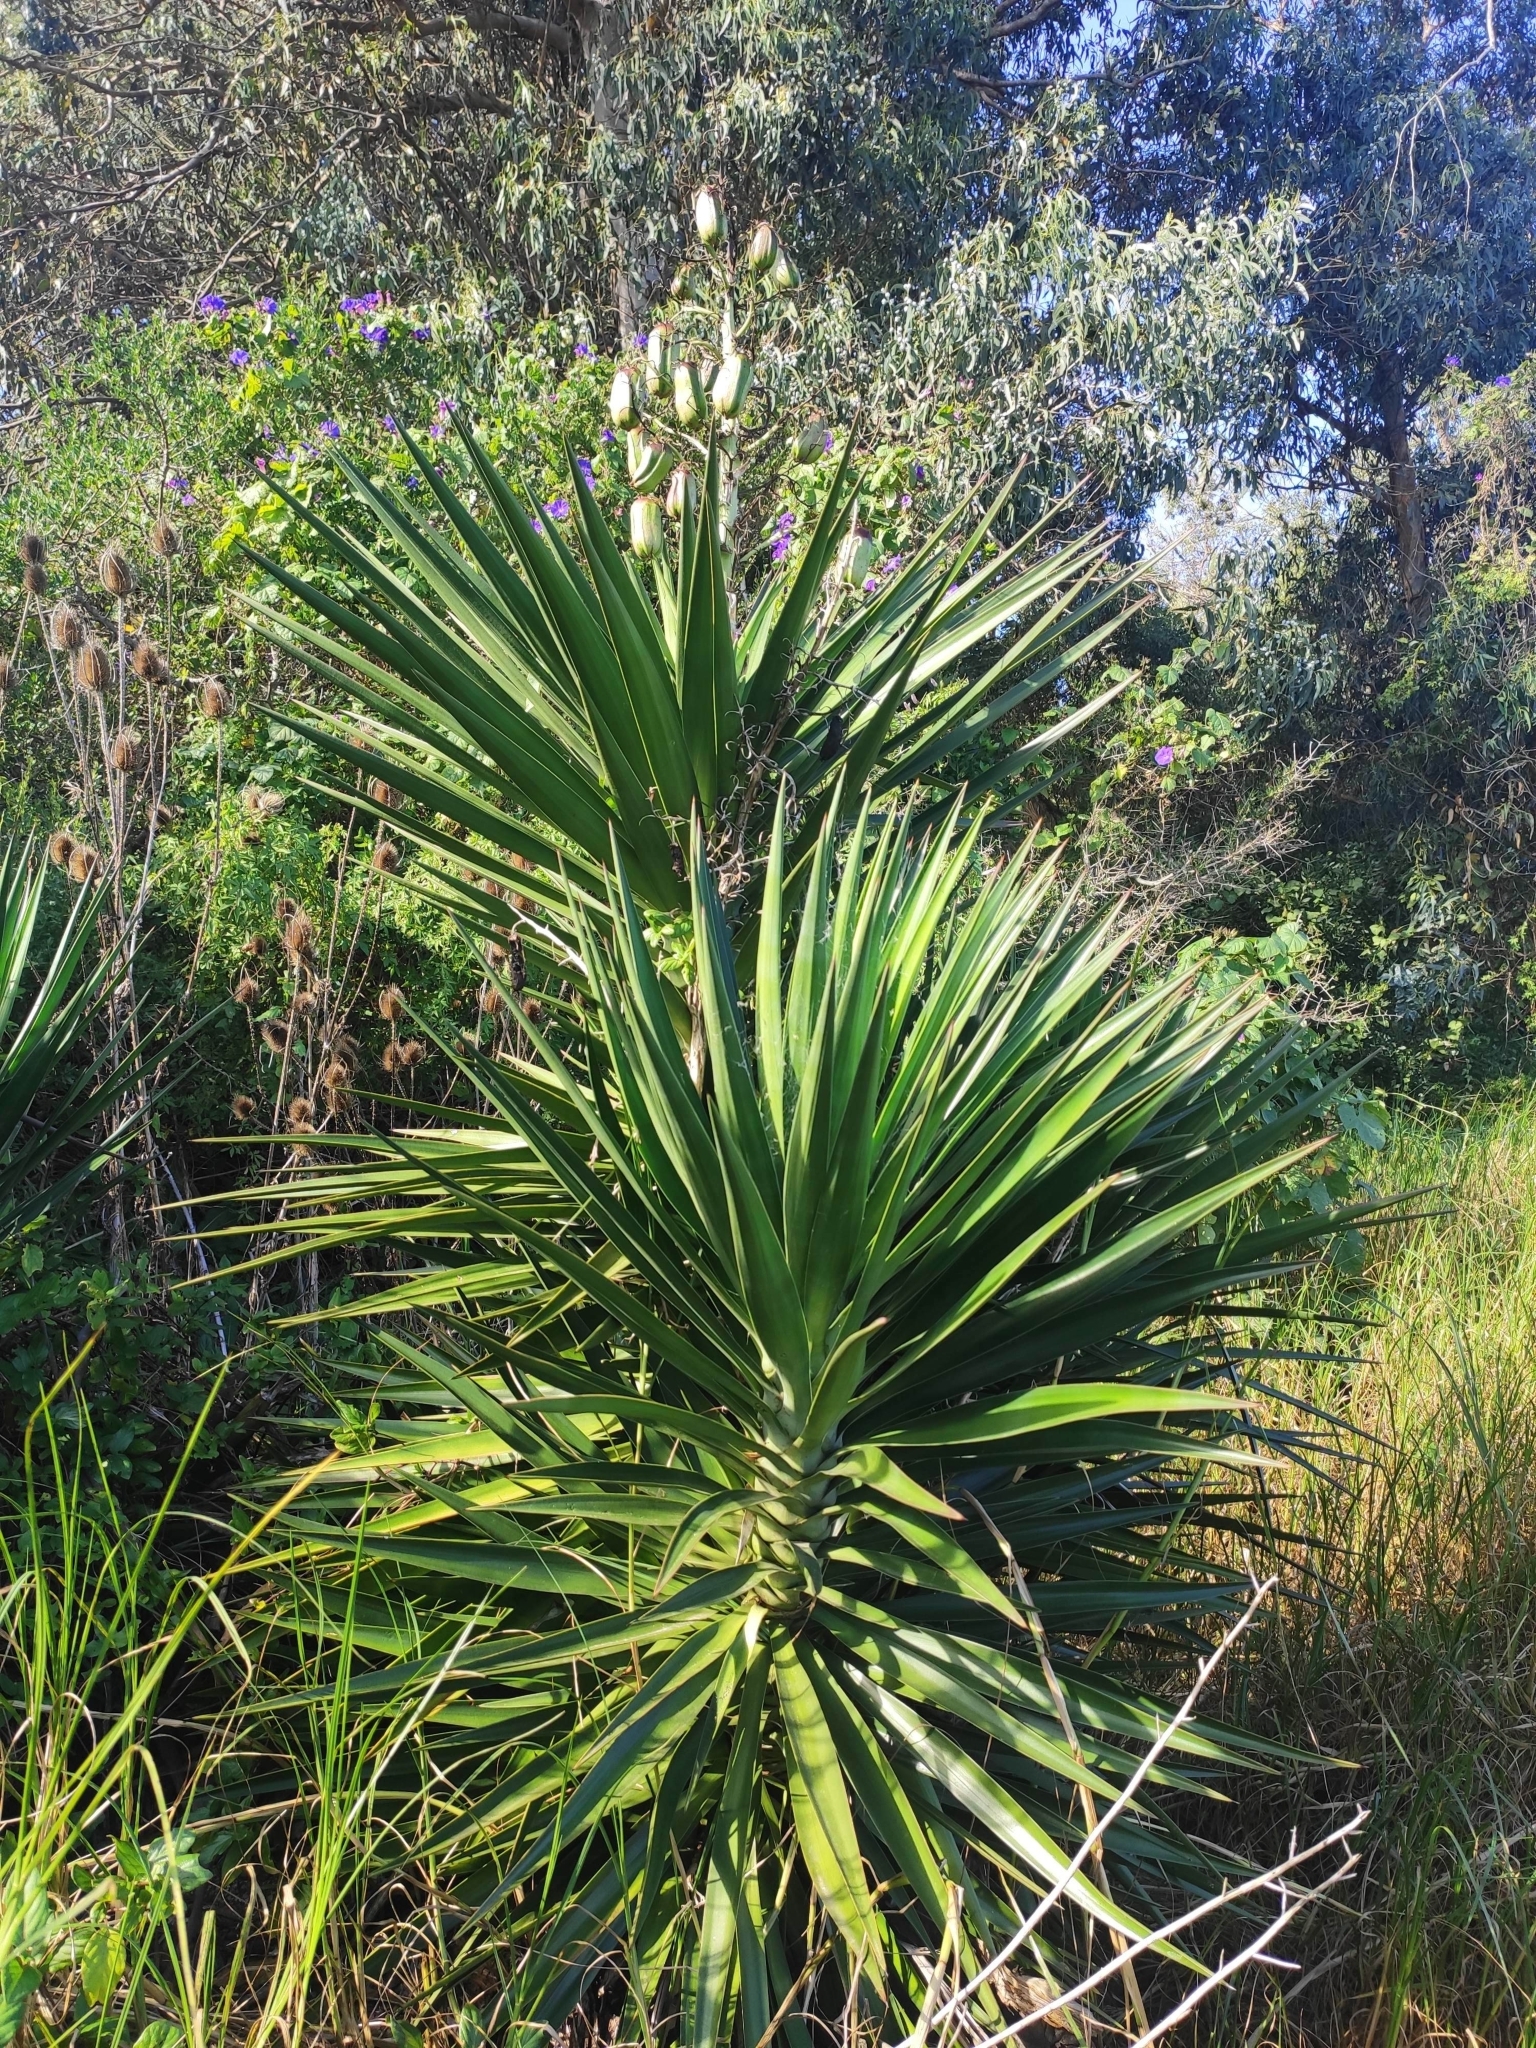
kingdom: Plantae
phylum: Tracheophyta
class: Liliopsida
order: Asparagales
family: Asparagaceae
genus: Yucca
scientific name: Yucca gloriosa
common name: Spanish-dagger
